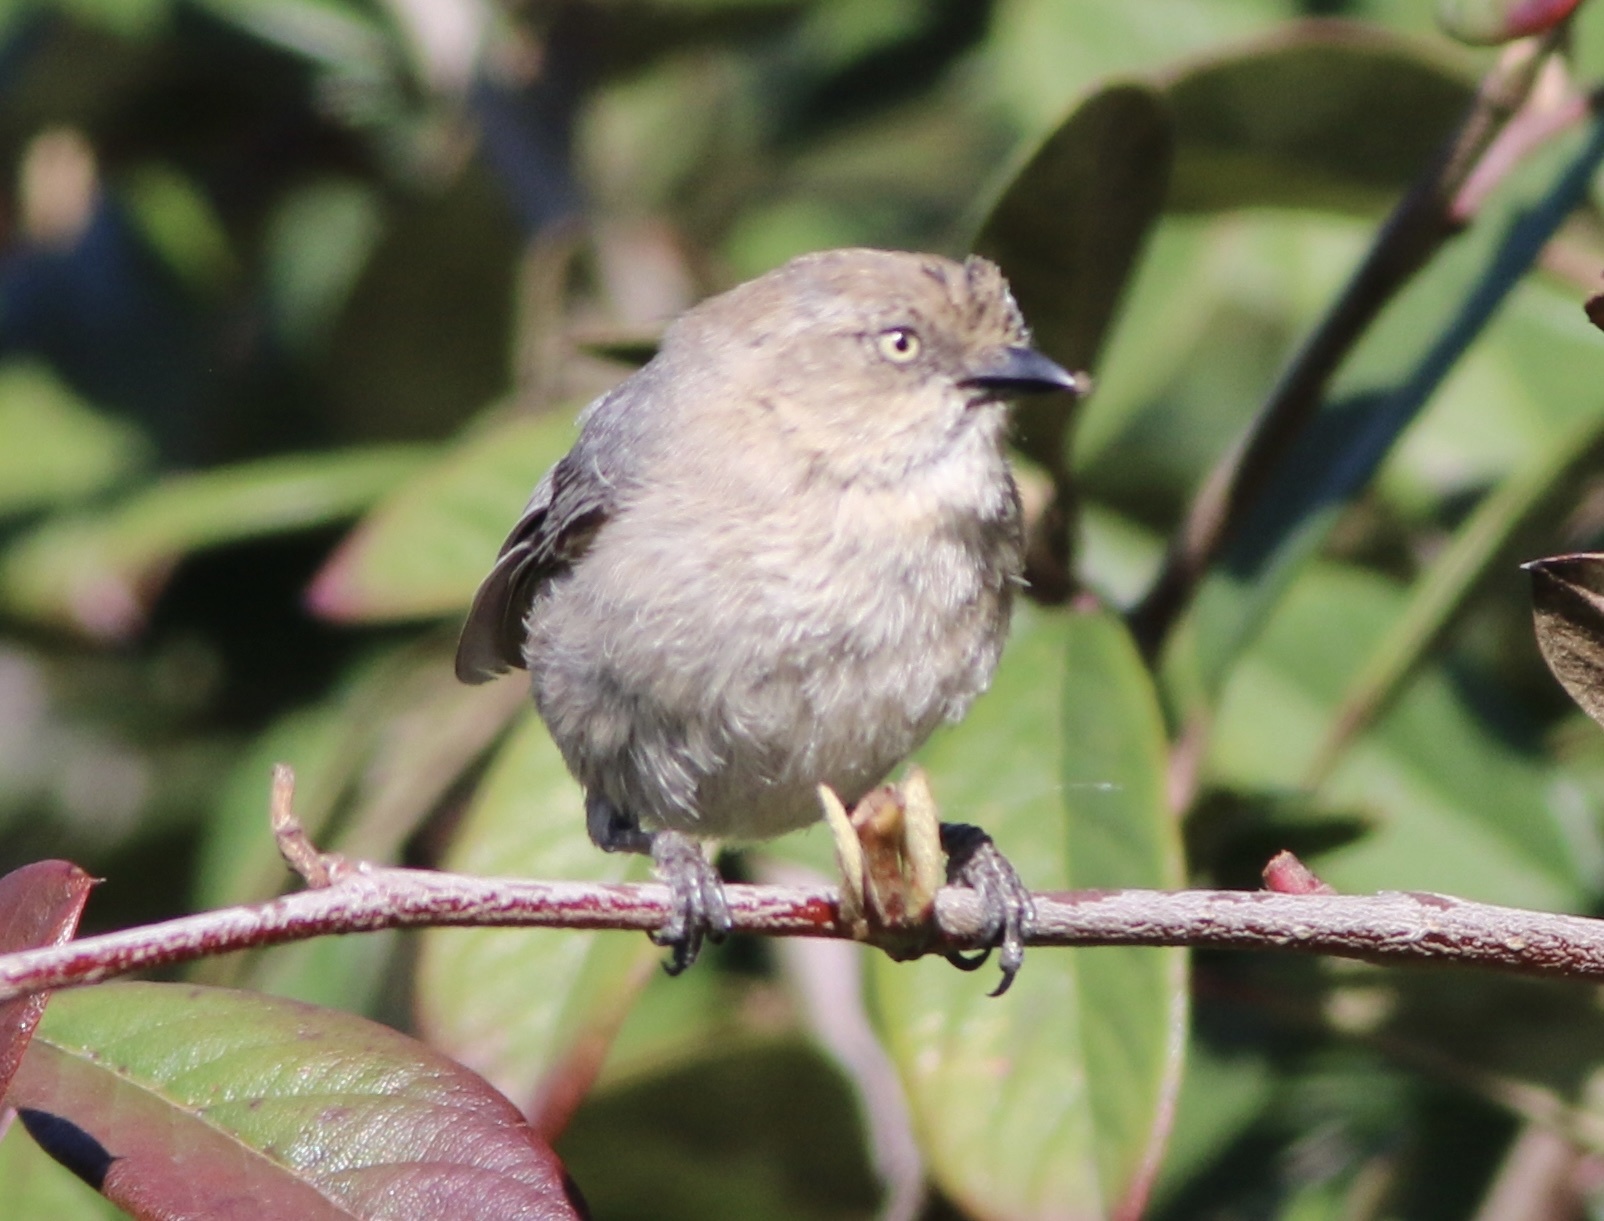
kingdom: Animalia
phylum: Chordata
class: Aves
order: Passeriformes
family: Aegithalidae
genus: Psaltriparus
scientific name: Psaltriparus minimus
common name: American bushtit
